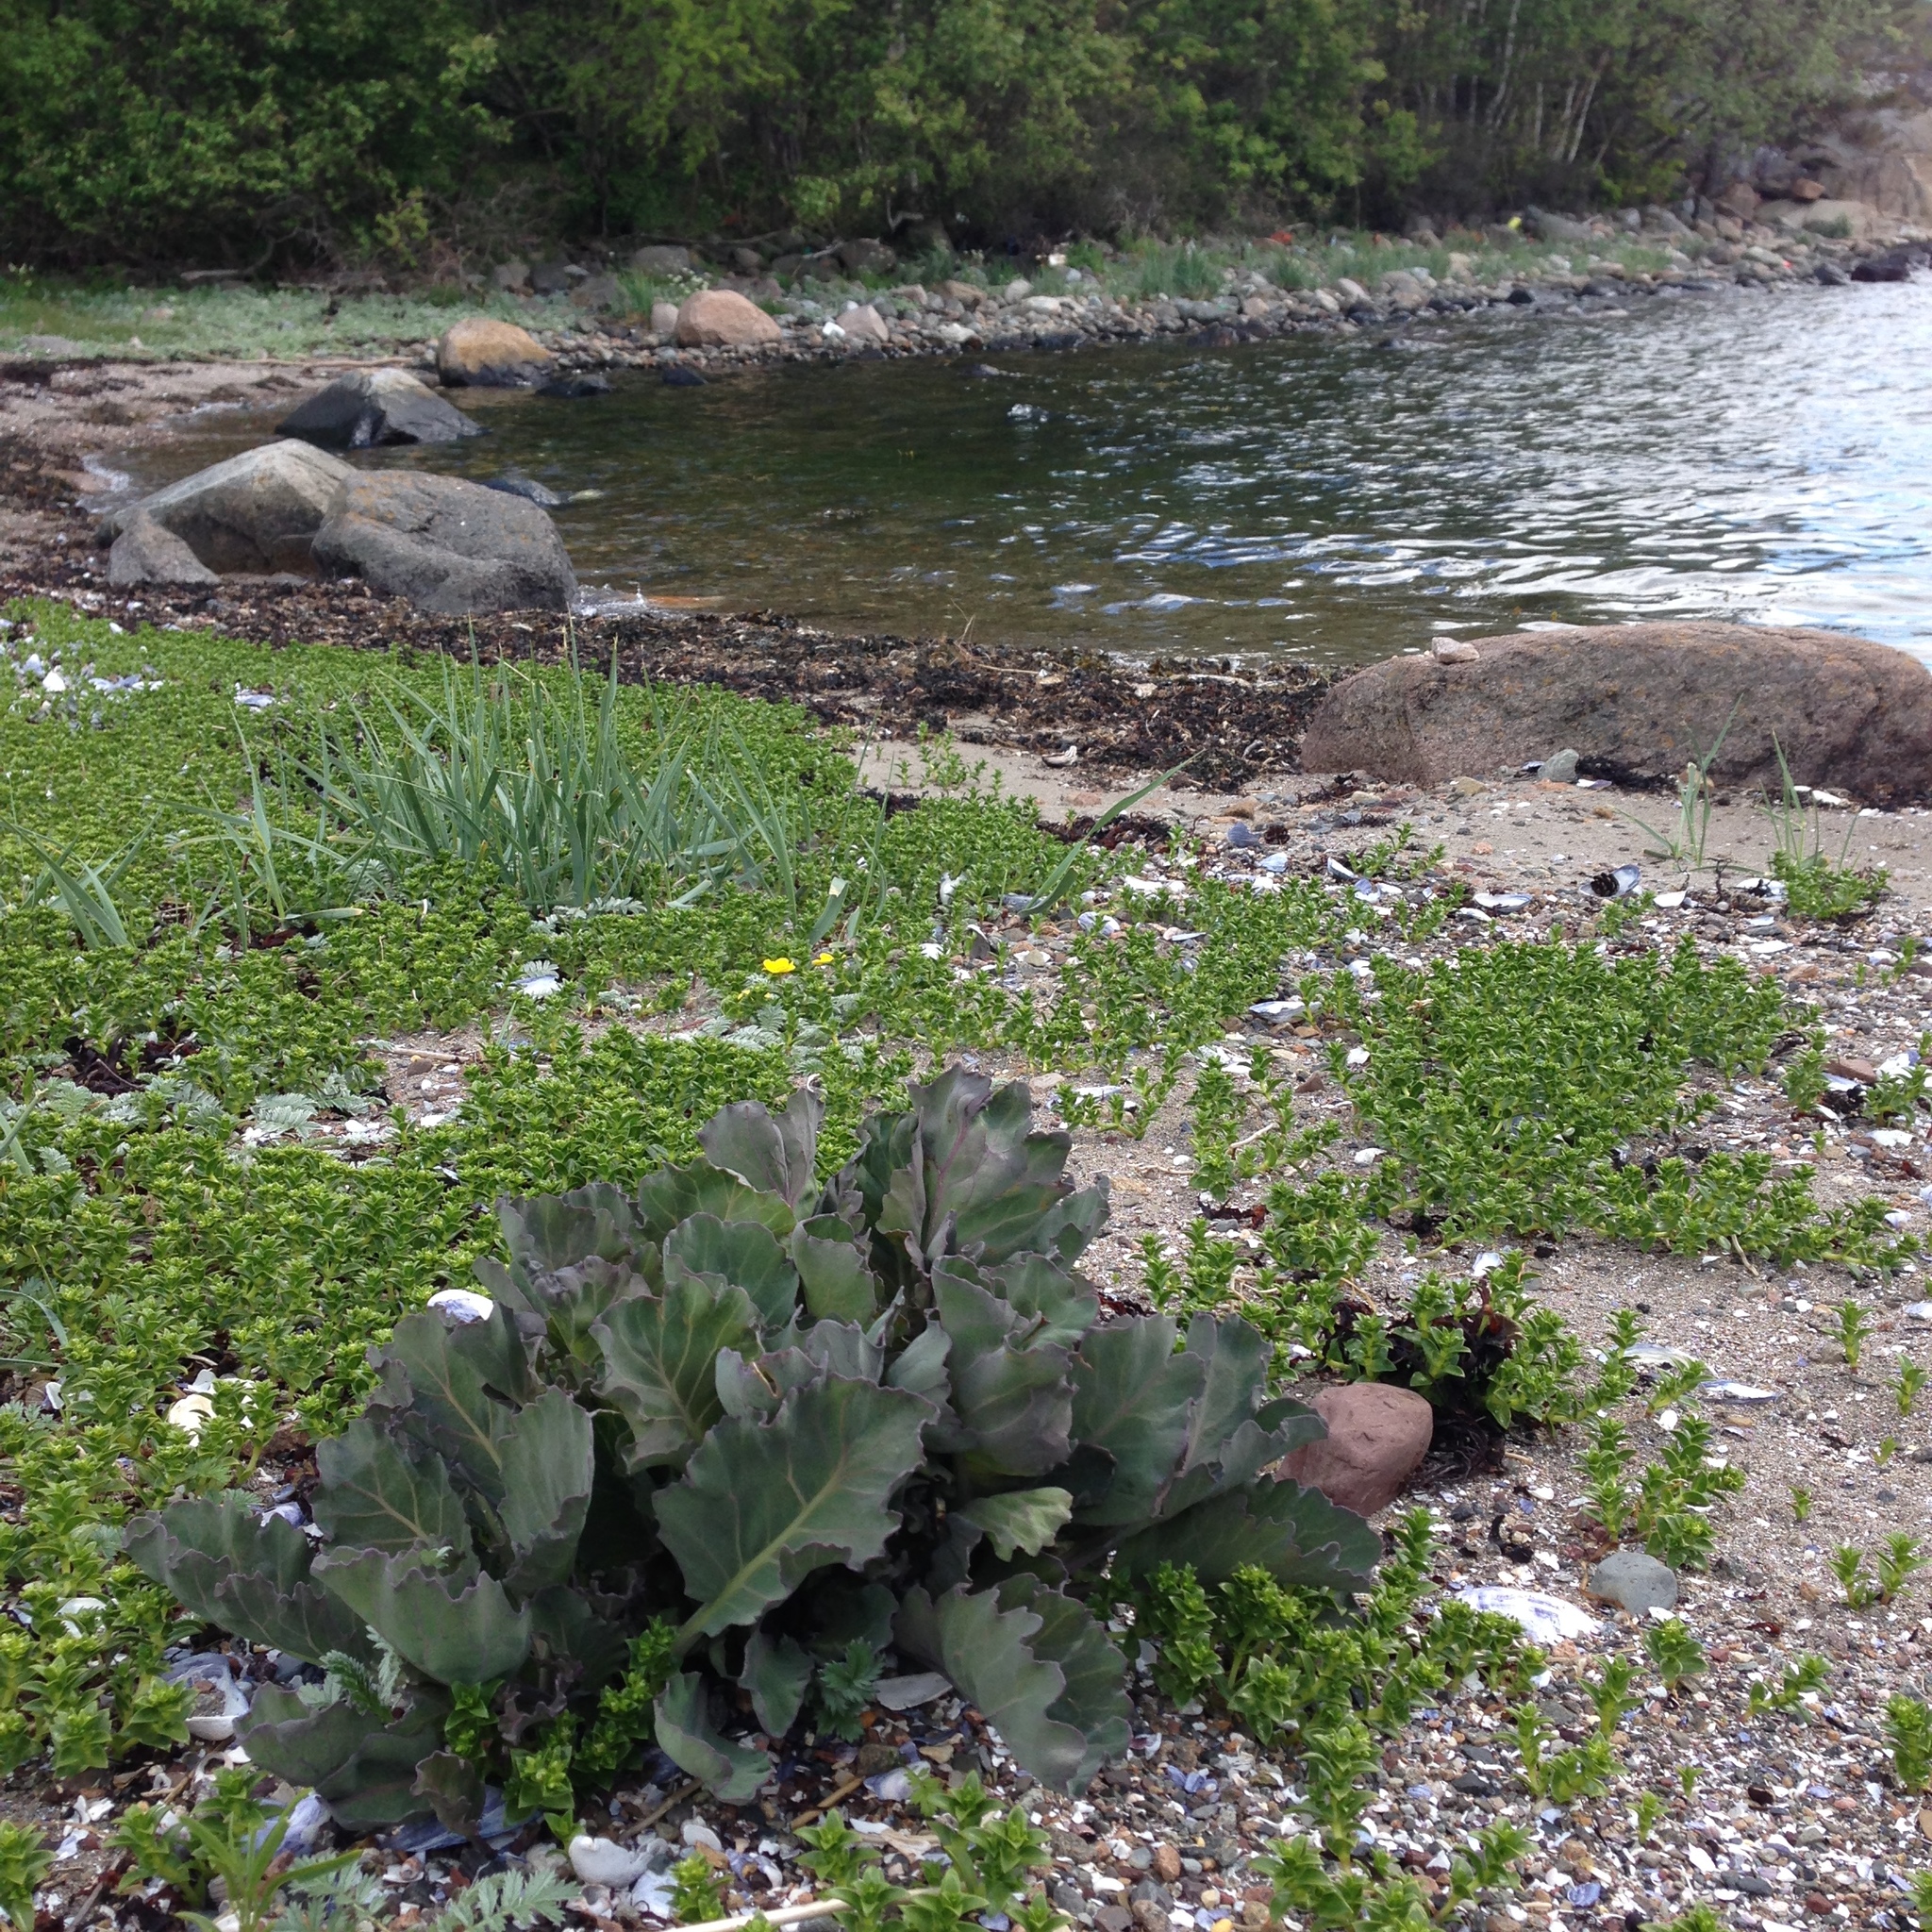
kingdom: Plantae
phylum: Tracheophyta
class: Magnoliopsida
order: Brassicales
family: Brassicaceae
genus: Crambe
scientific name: Crambe maritima
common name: Sea-kale
